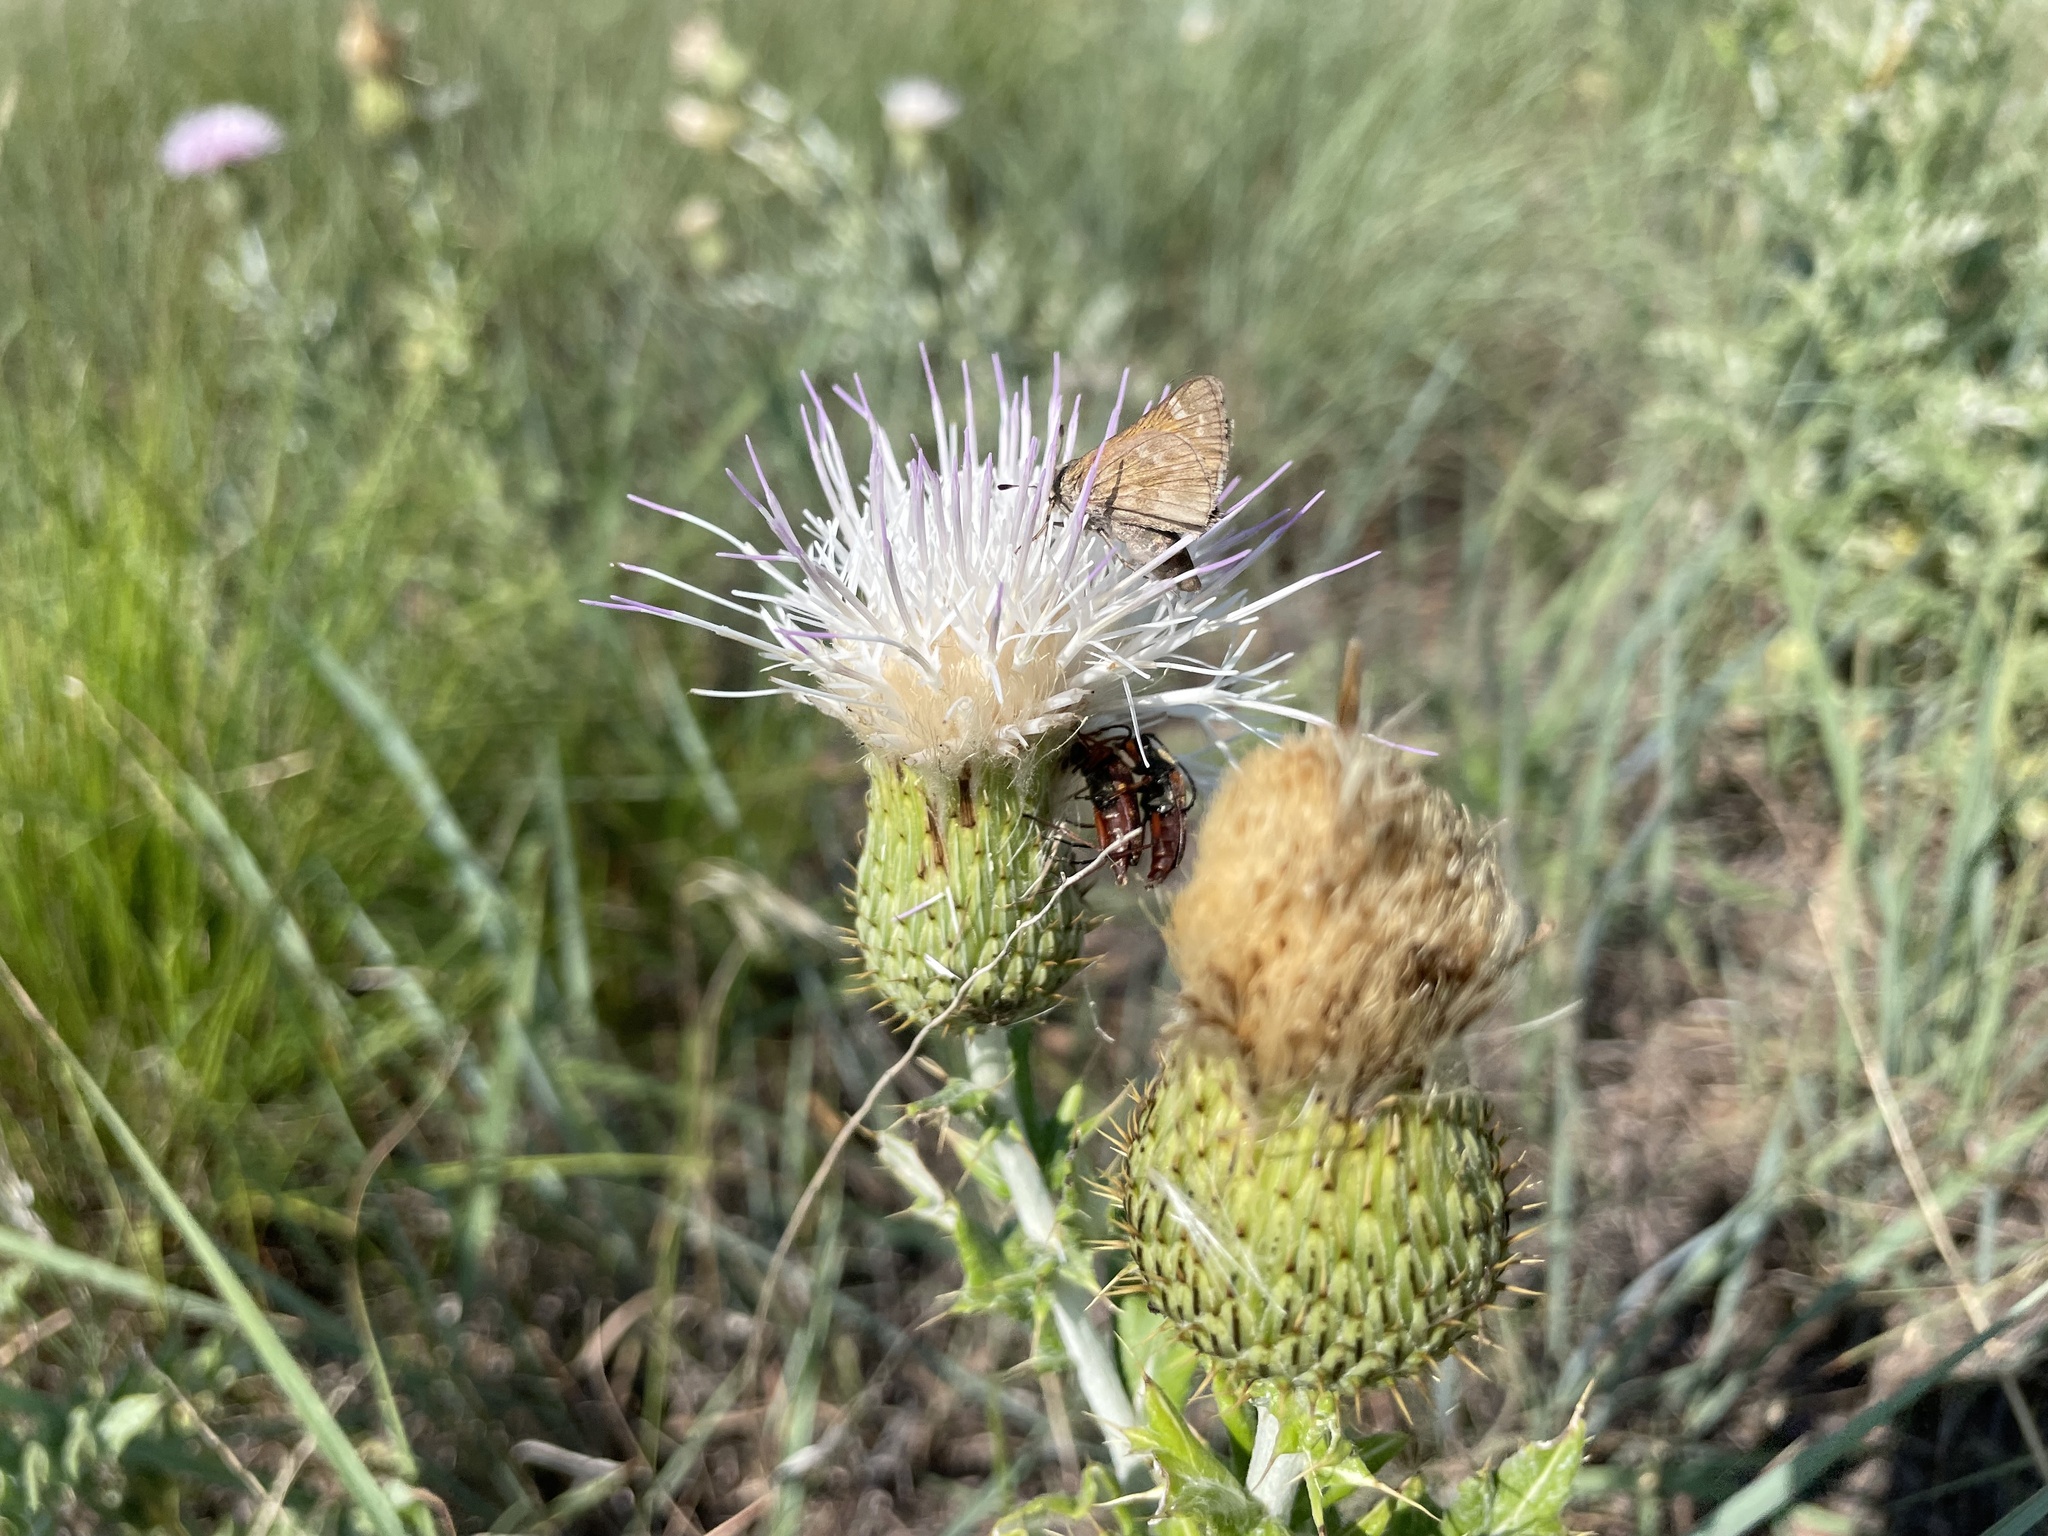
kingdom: Animalia
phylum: Arthropoda
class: Insecta
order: Lepidoptera
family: Hesperiidae
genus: Atalopedes
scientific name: Atalopedes
